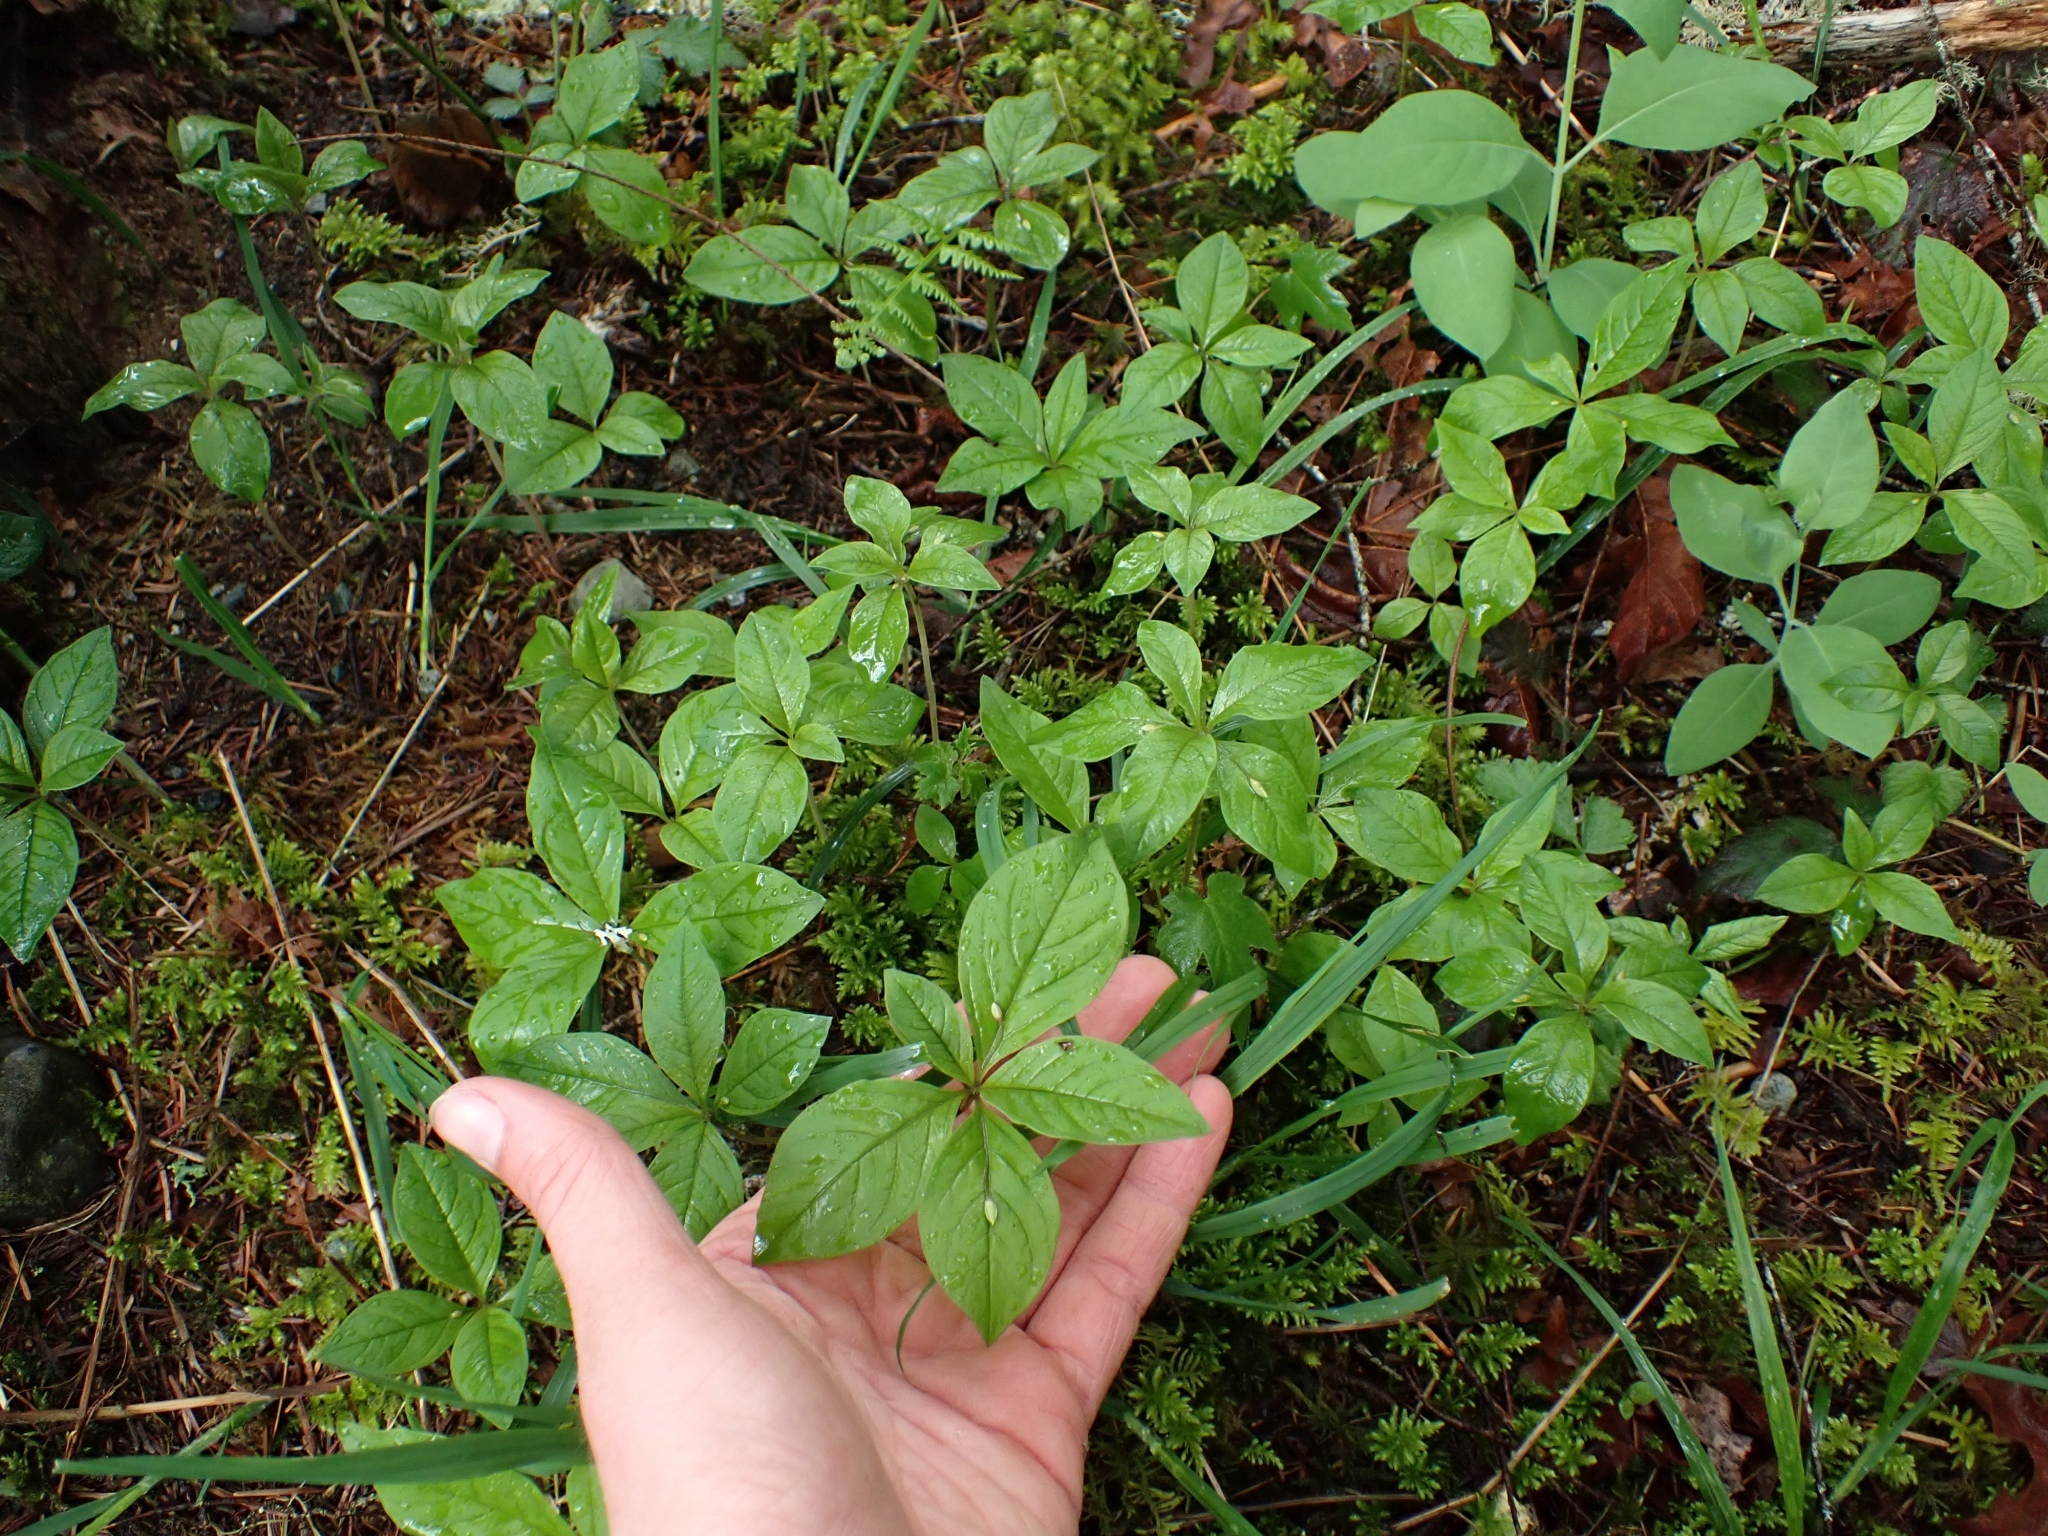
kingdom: Plantae
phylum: Tracheophyta
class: Magnoliopsida
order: Ericales
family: Primulaceae
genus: Lysimachia
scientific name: Lysimachia latifolia
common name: Pacific starflower
